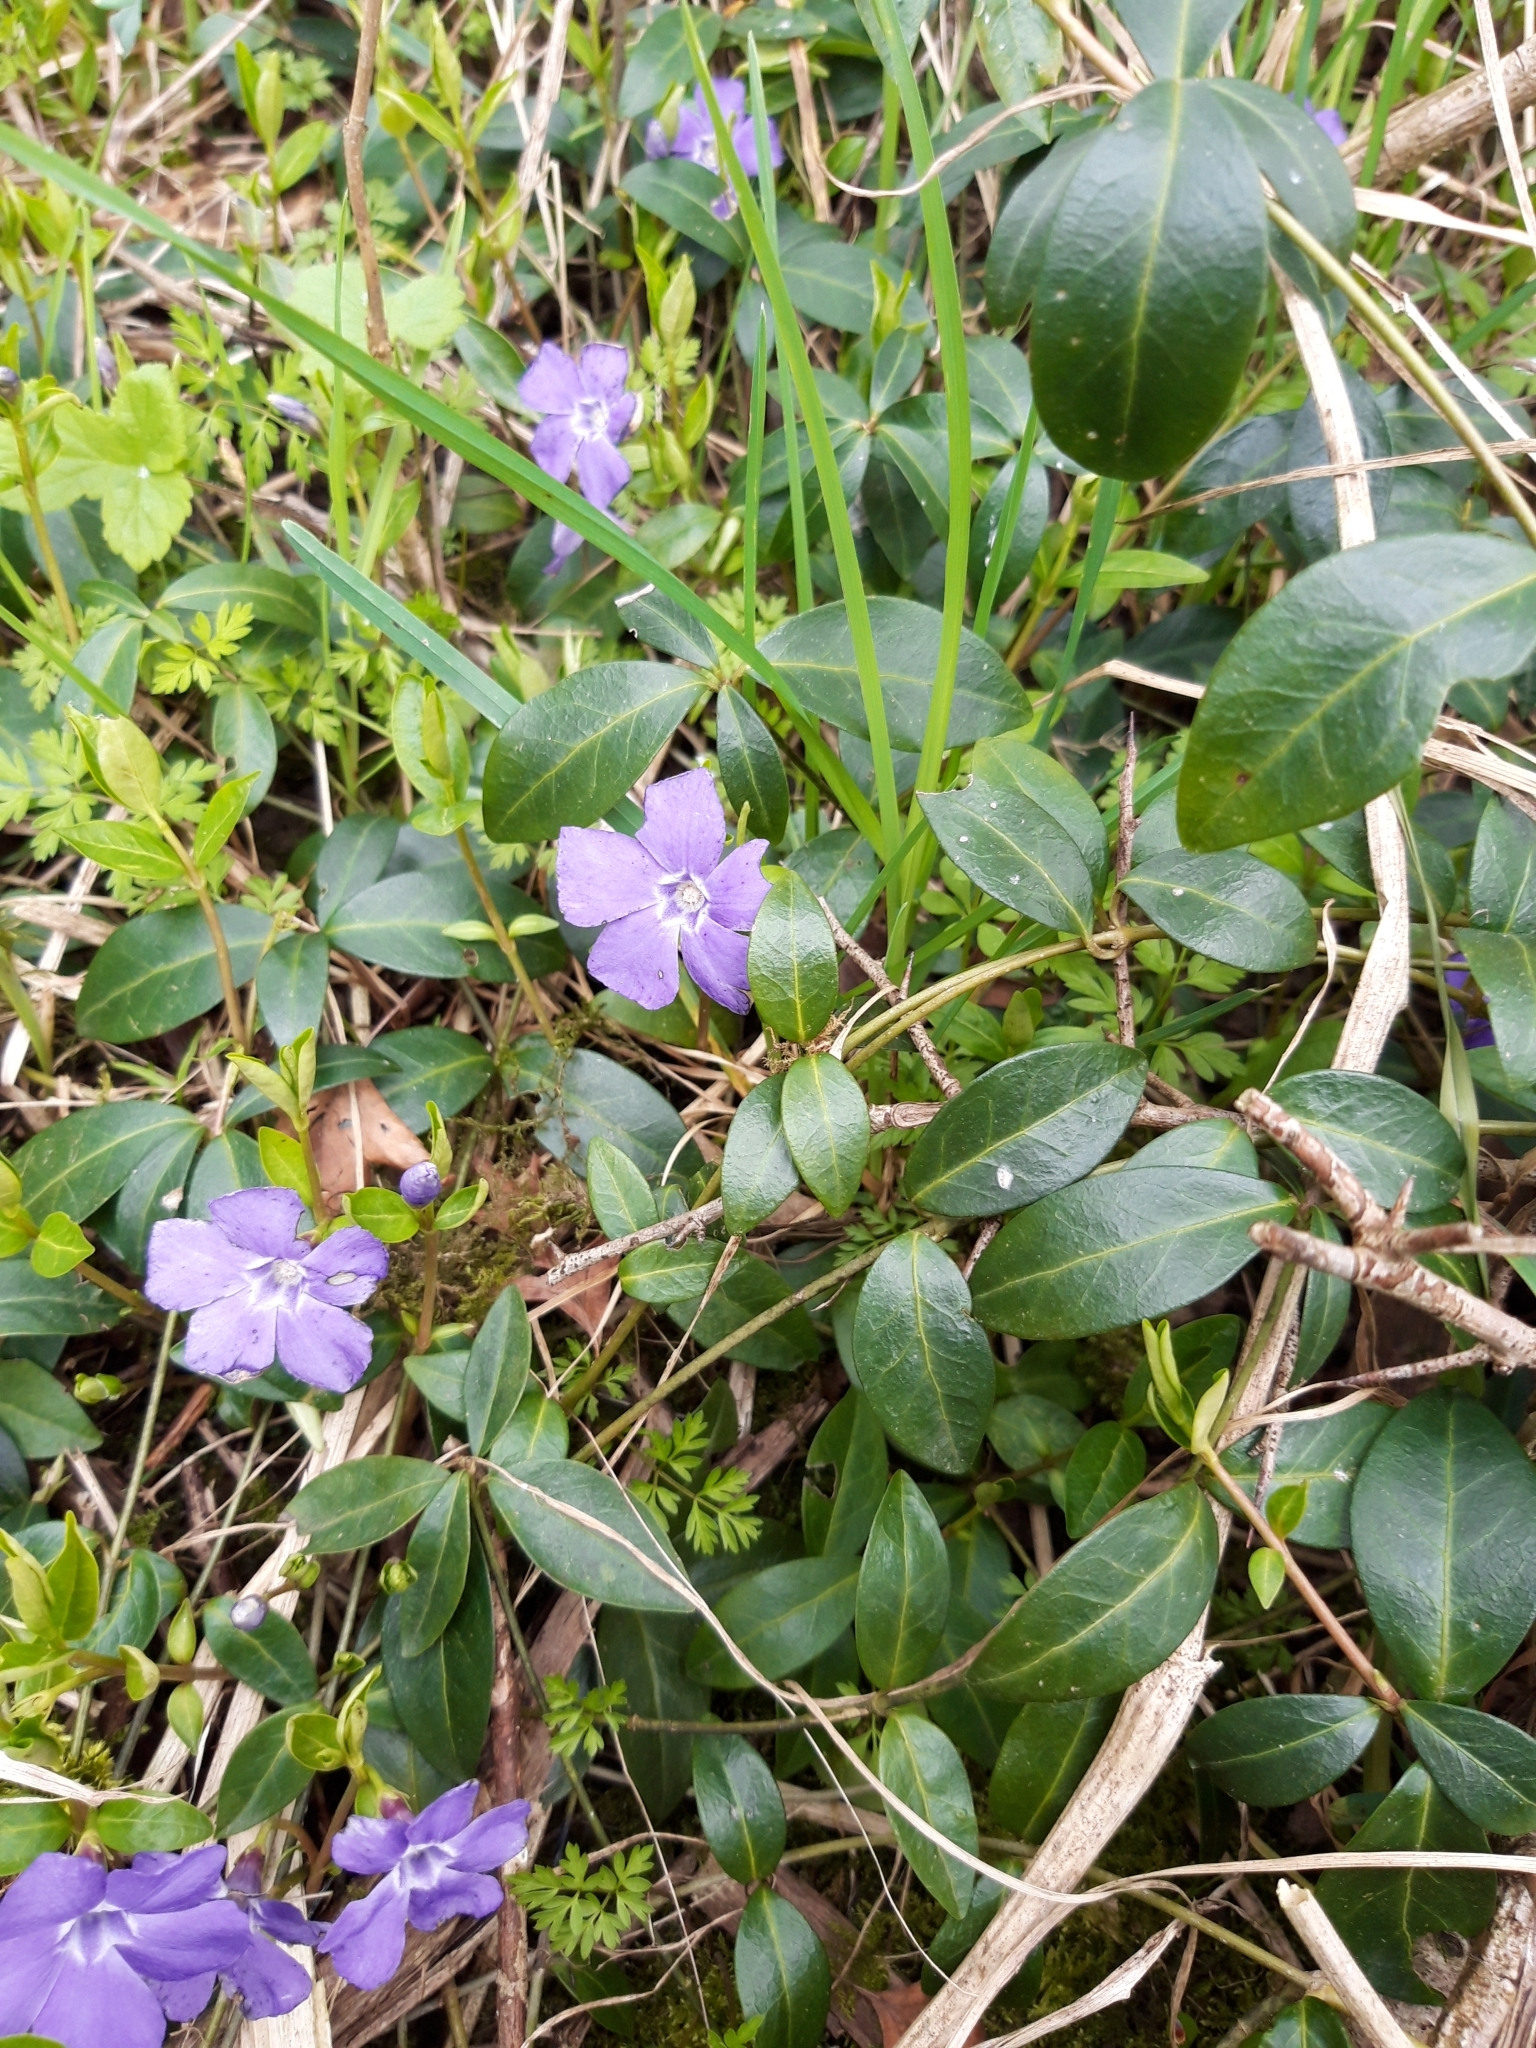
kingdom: Plantae
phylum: Tracheophyta
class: Magnoliopsida
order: Gentianales
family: Apocynaceae
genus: Vinca
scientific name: Vinca minor
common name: Lesser periwinkle
